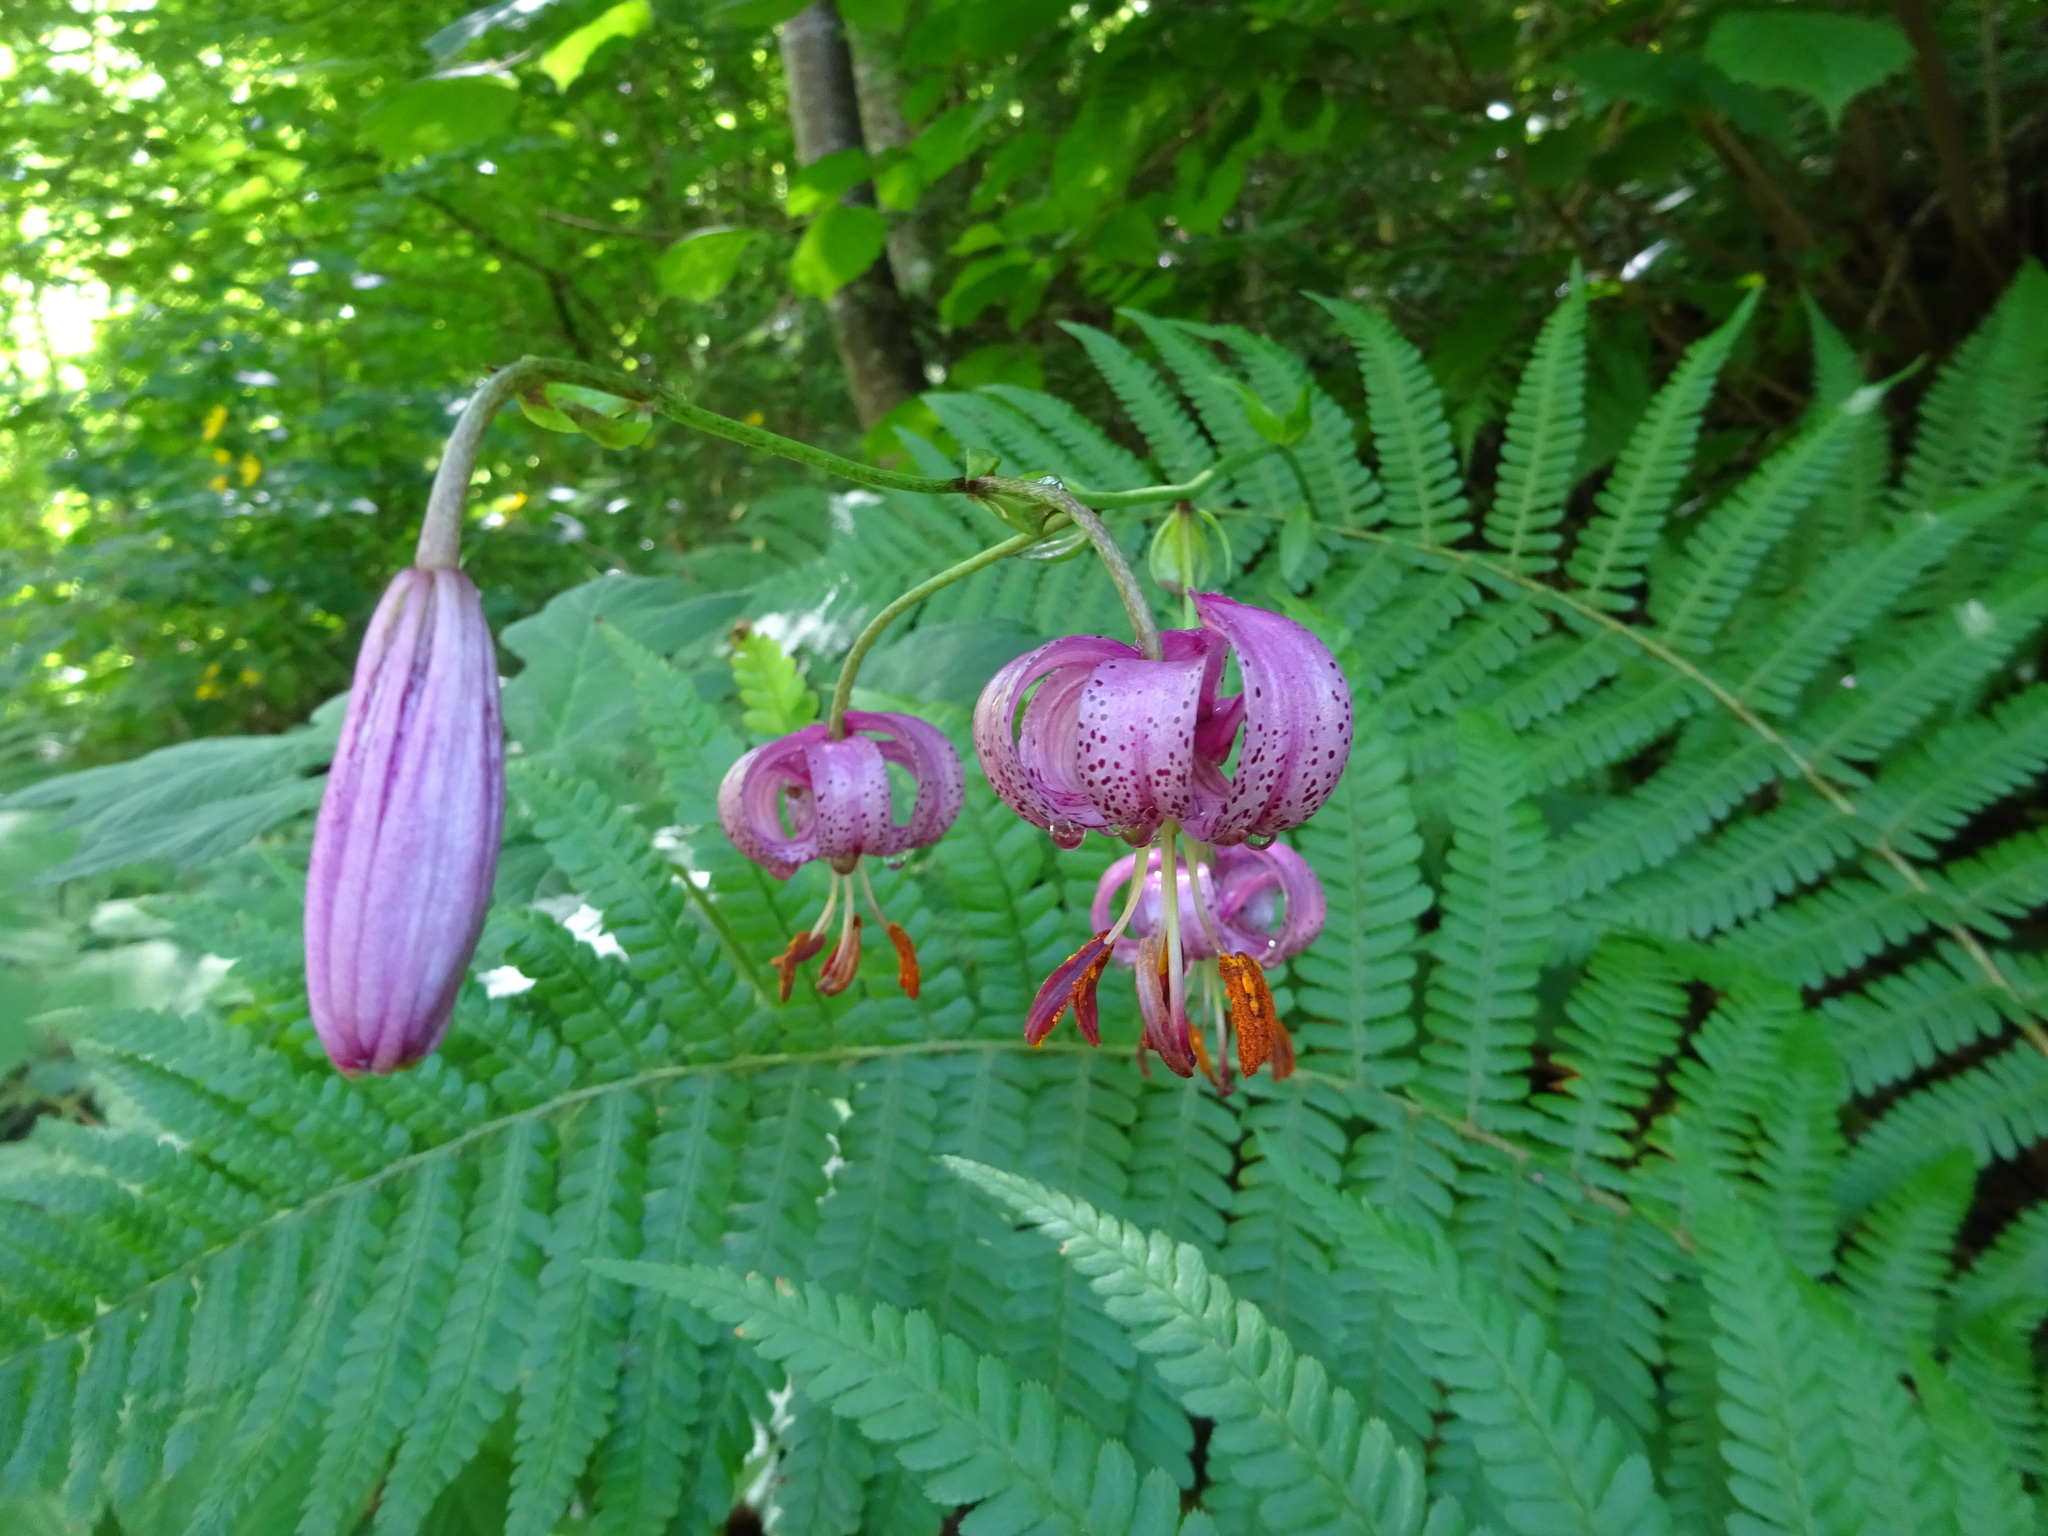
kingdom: Plantae
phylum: Tracheophyta
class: Liliopsida
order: Liliales
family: Liliaceae
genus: Lilium
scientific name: Lilium martagon
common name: Martagon lily
